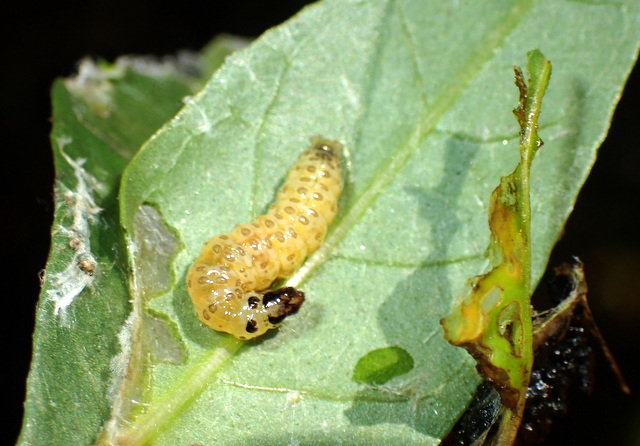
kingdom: Animalia
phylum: Arthropoda
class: Insecta
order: Coleoptera
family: Chrysomelidae
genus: Agasicles
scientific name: Agasicles hygrophila
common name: Alligatorweed flea beetle
